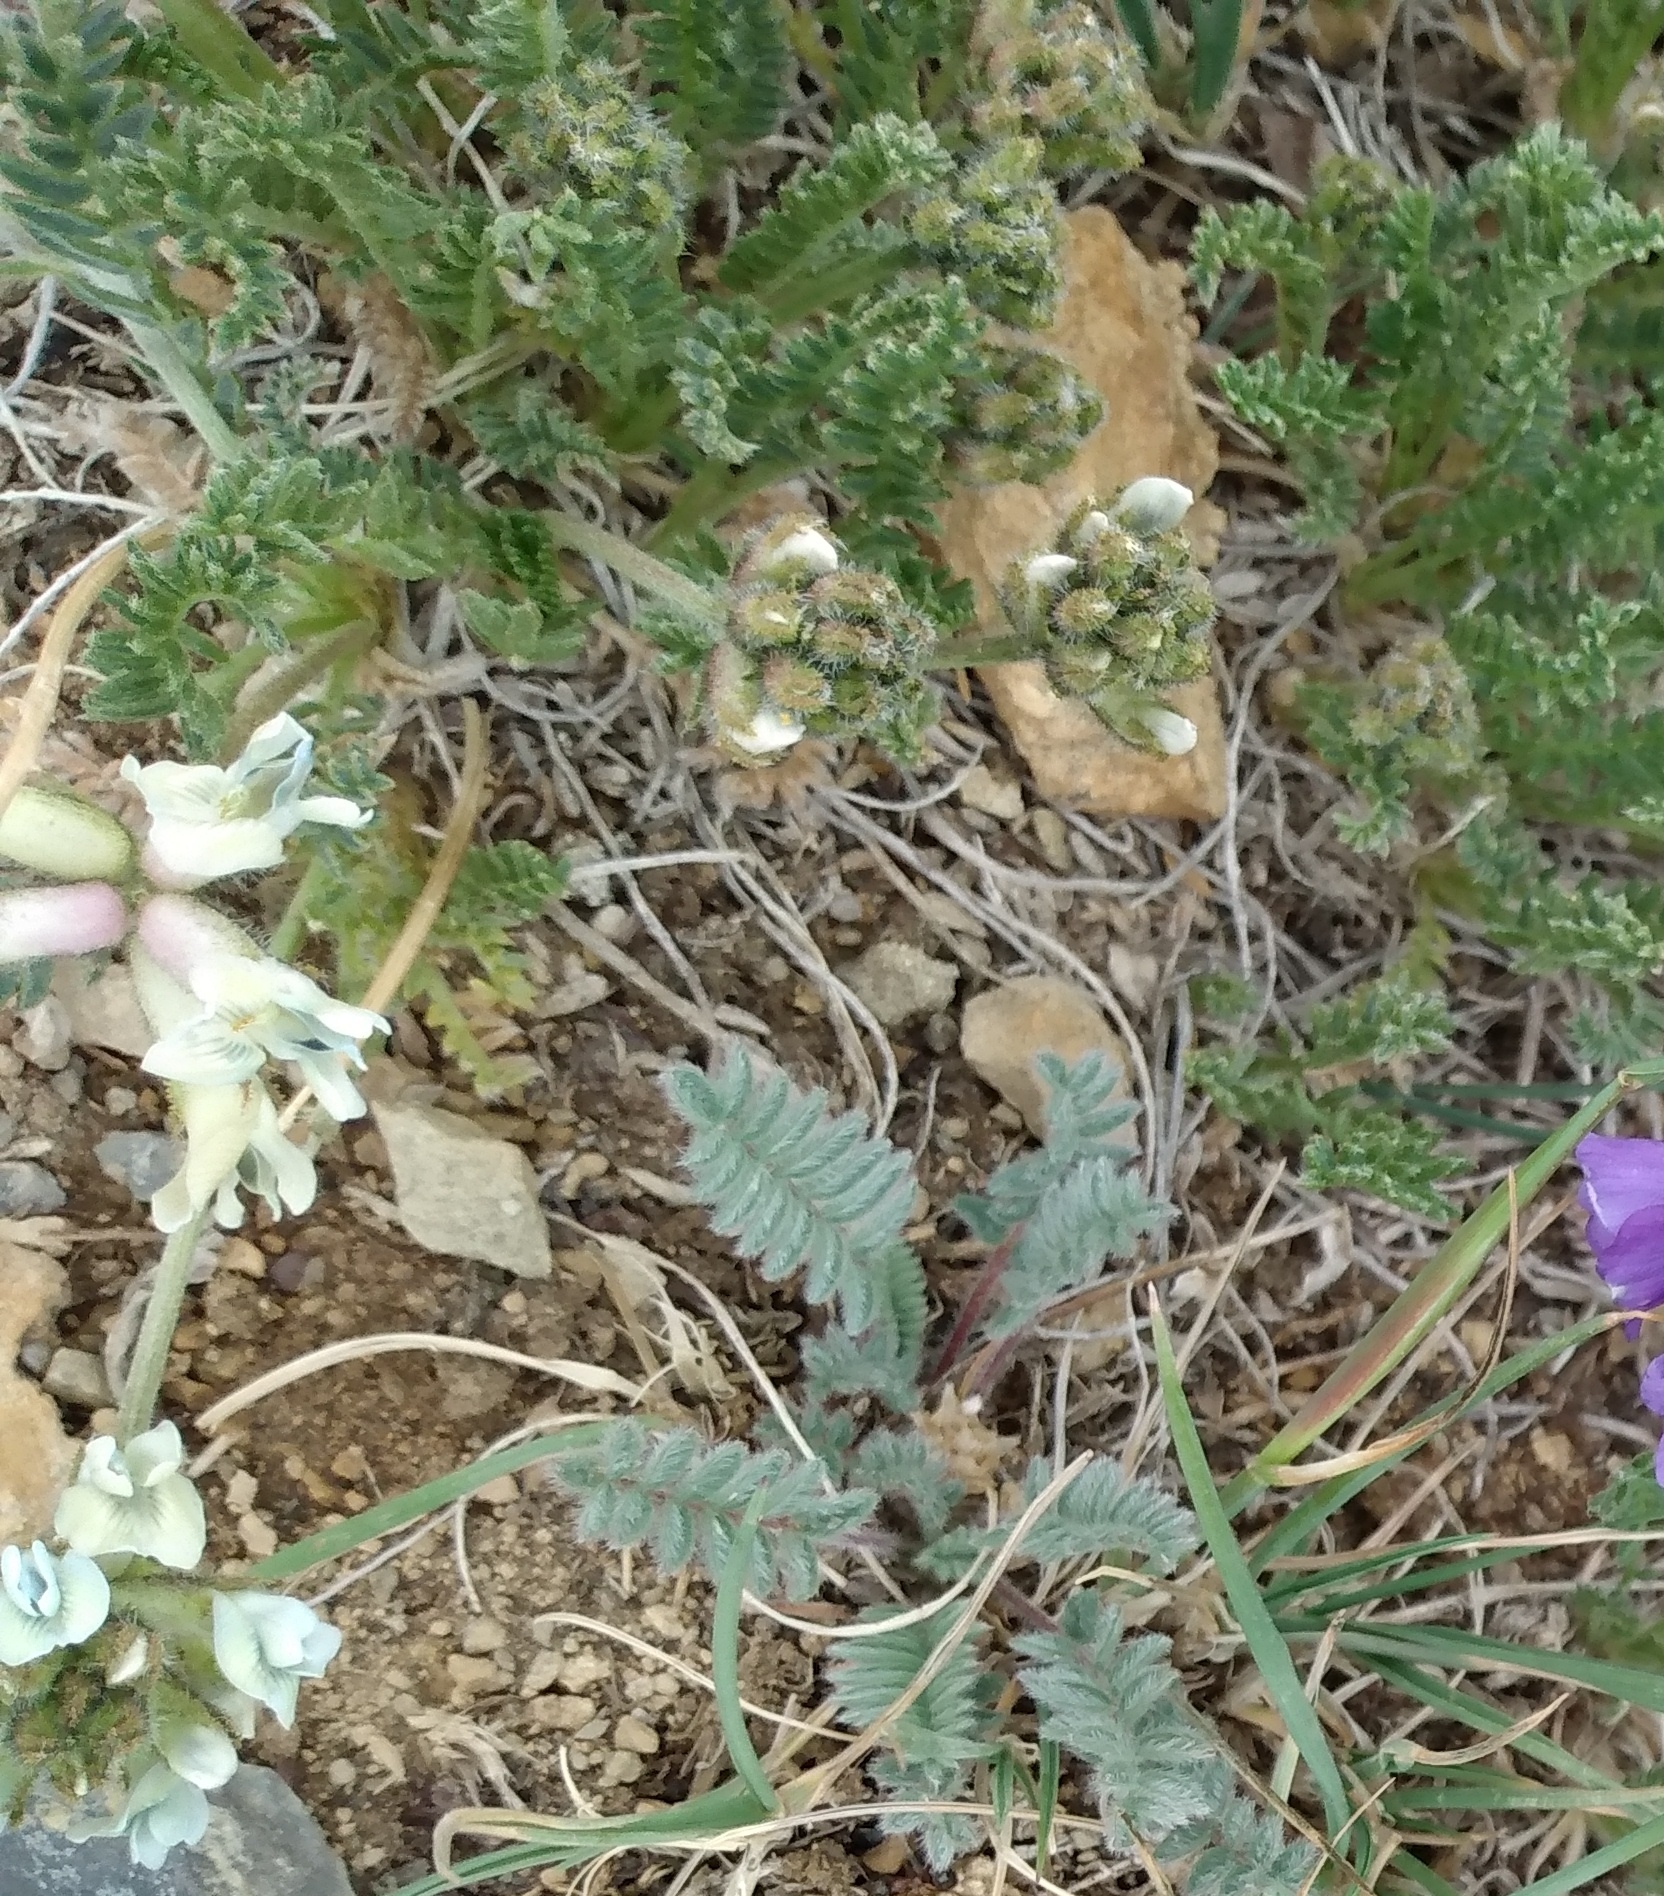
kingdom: Plantae
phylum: Tracheophyta
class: Magnoliopsida
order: Fabales
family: Fabaceae
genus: Oxytropis
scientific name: Oxytropis borealis
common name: Boreal locoweed
